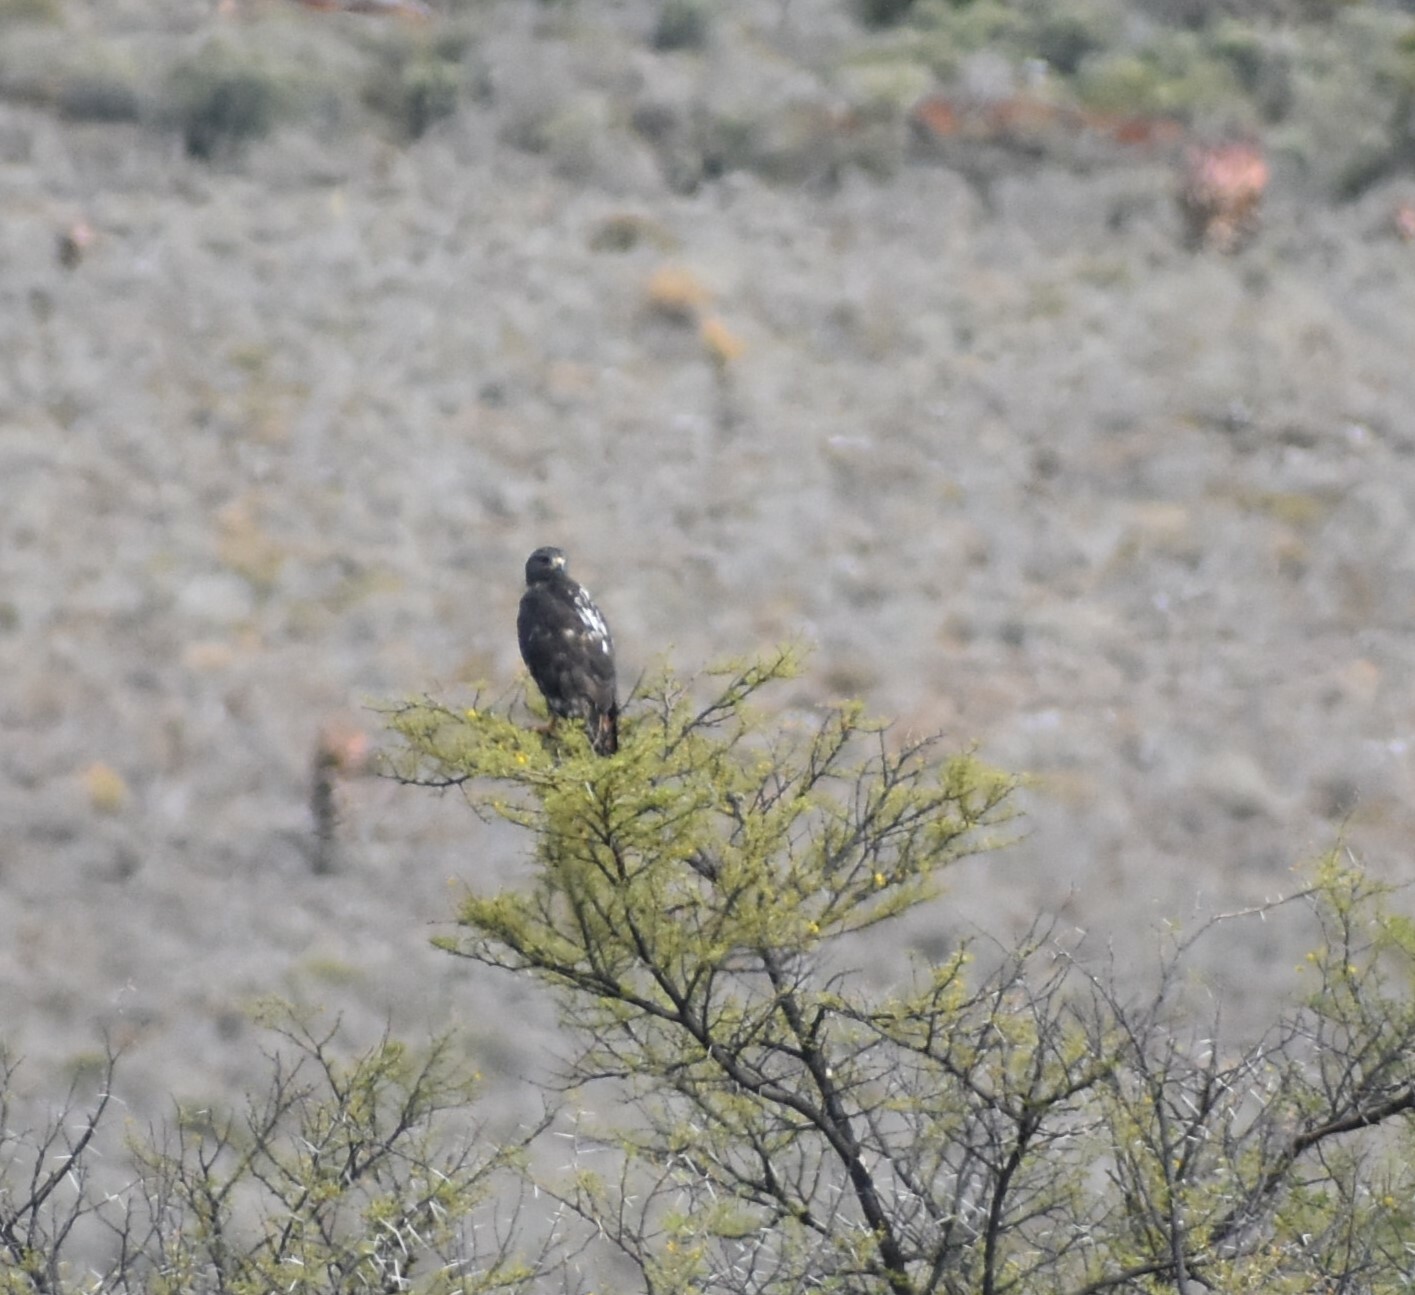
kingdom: Animalia
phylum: Chordata
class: Aves
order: Accipitriformes
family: Accipitridae
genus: Buteo
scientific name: Buteo rufofuscus
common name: Jackal buzzard
